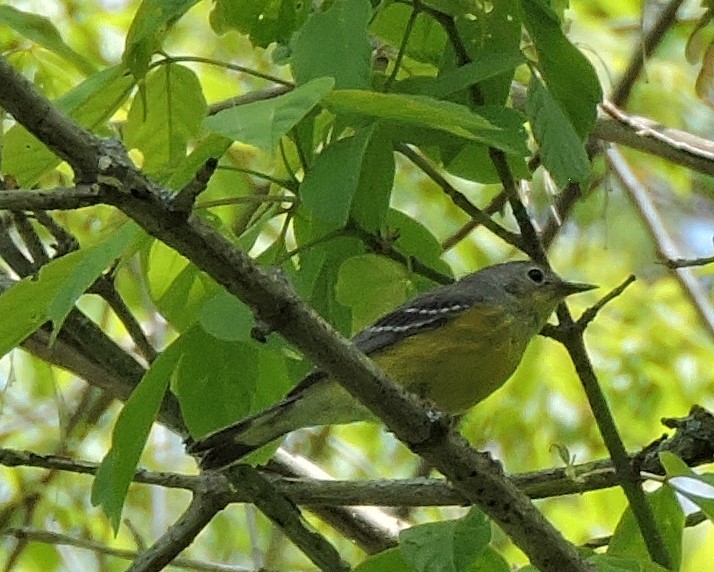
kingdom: Animalia
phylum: Chordata
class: Aves
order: Passeriformes
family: Parulidae
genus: Setophaga
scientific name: Setophaga magnolia
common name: Magnolia warbler
